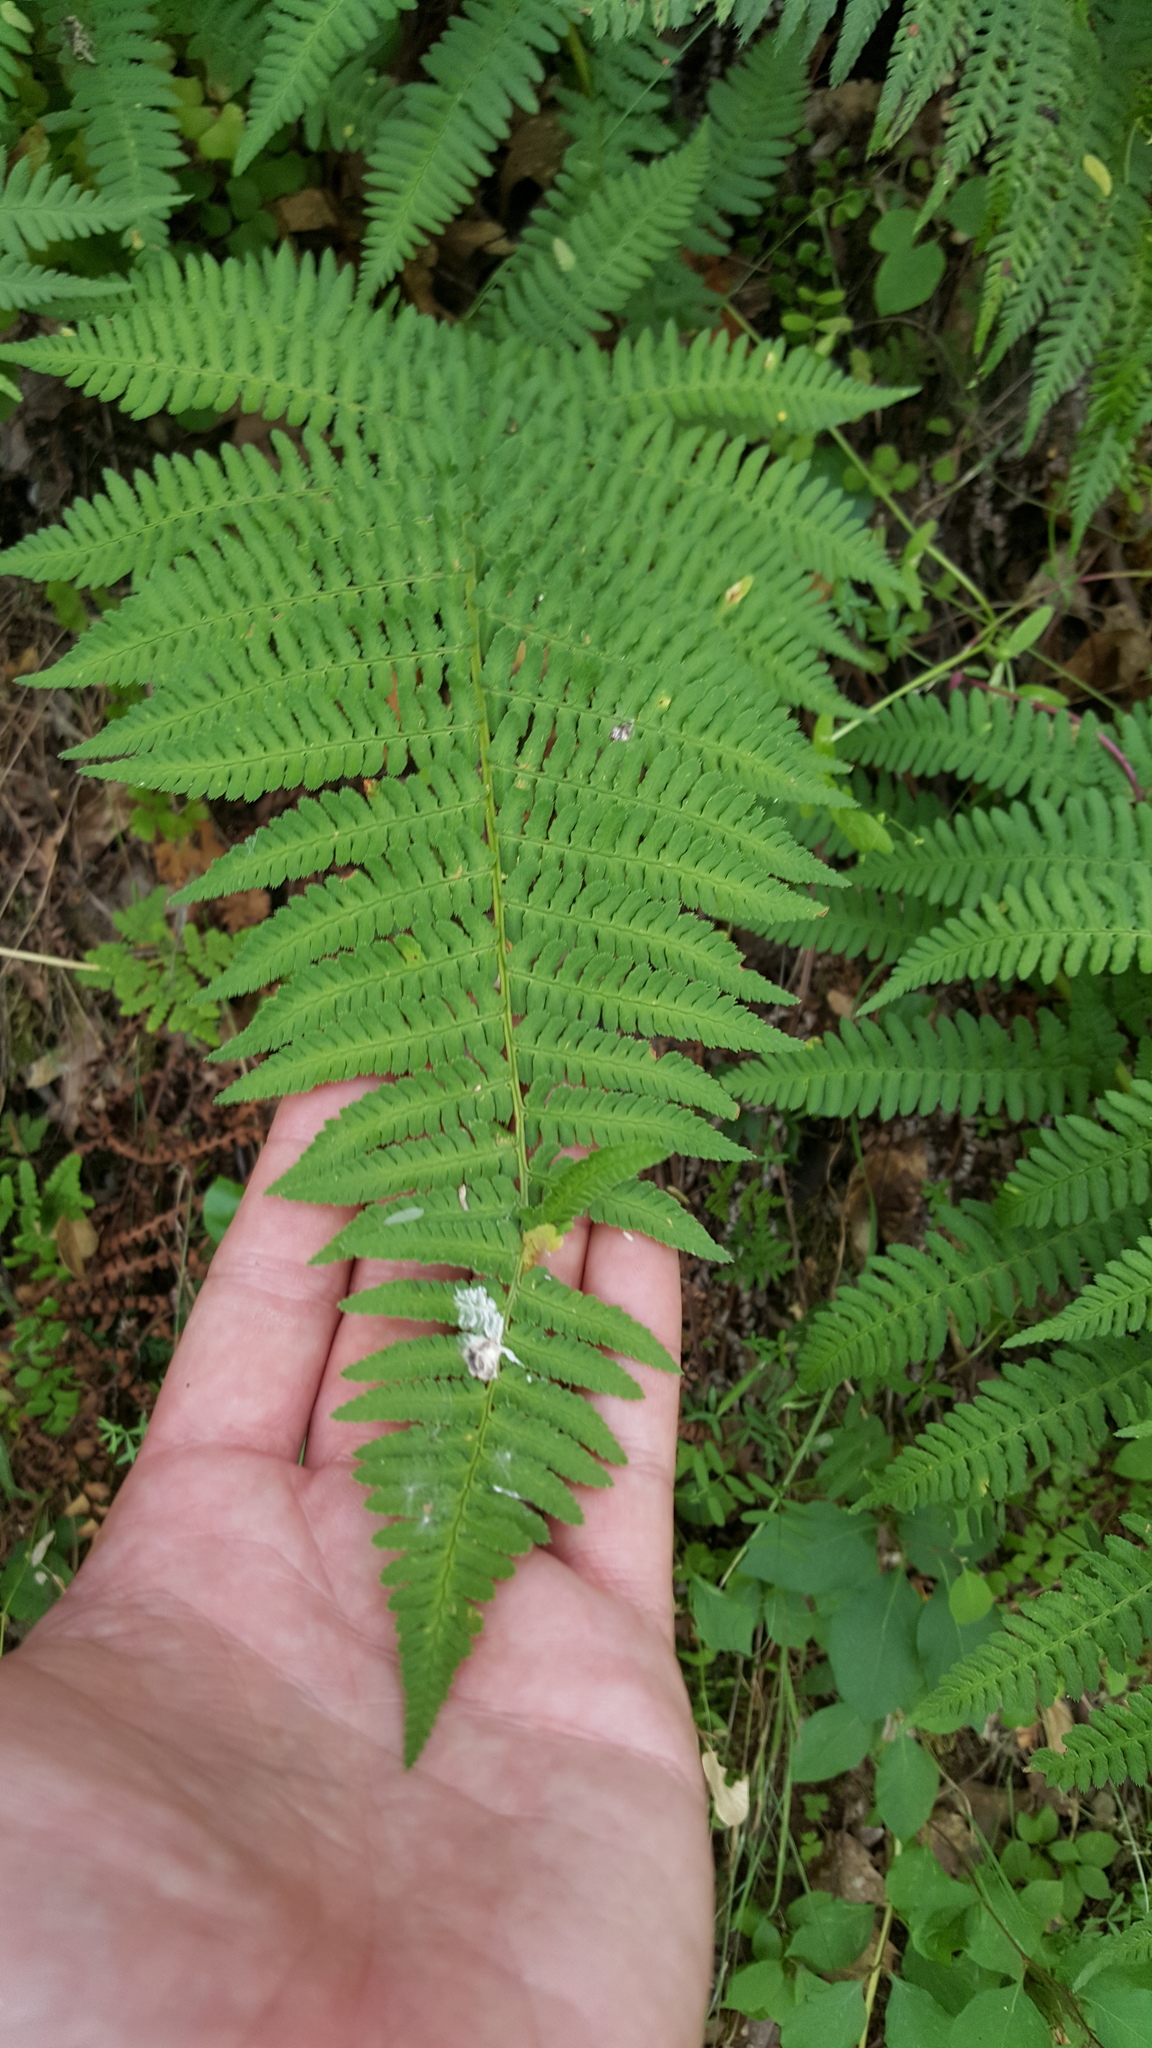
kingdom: Plantae
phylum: Tracheophyta
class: Polypodiopsida
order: Polypodiales
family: Dryopteridaceae
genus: Dryopteris
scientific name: Dryopteris arguta
